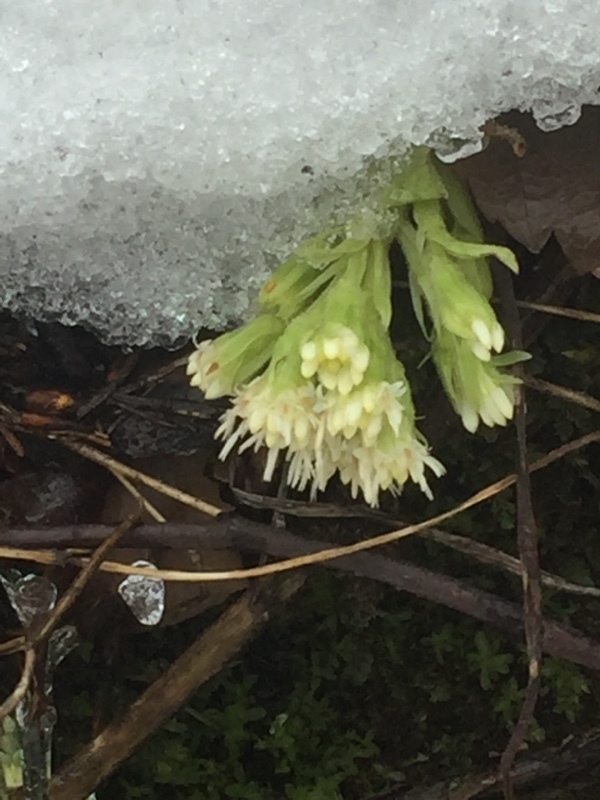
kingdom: Plantae
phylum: Tracheophyta
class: Magnoliopsida
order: Asterales
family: Asteraceae
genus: Petasites
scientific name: Petasites albus
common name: White butterbur
